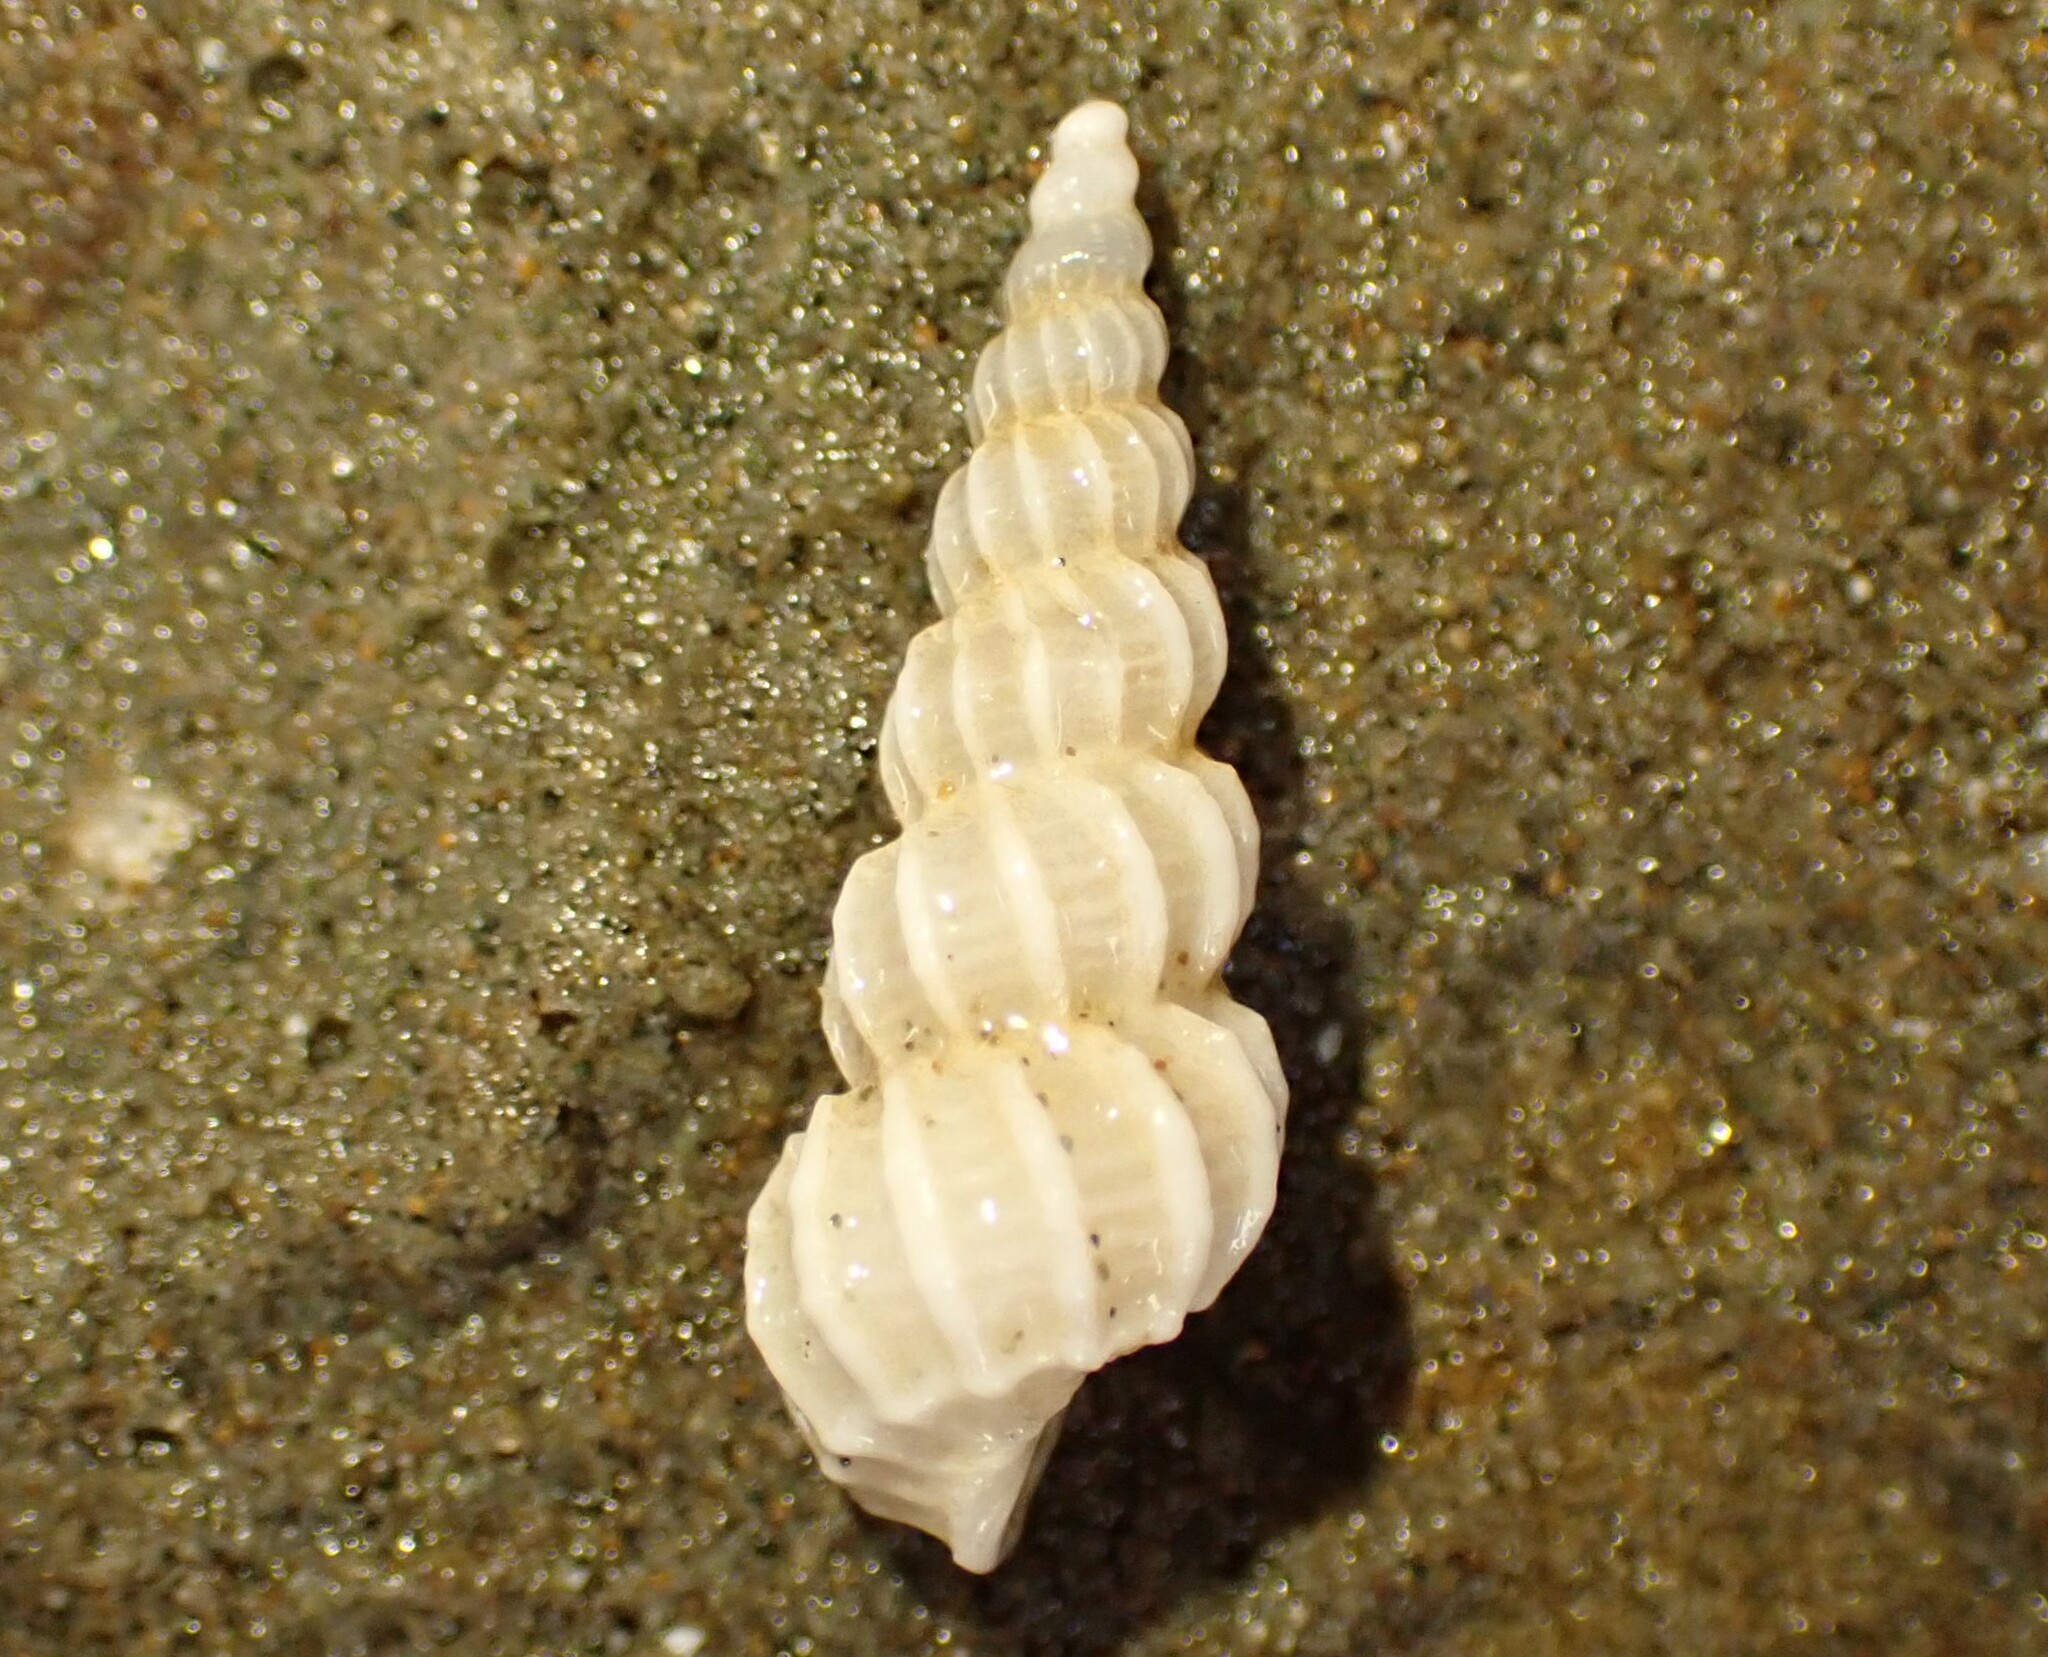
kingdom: Animalia
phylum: Mollusca
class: Gastropoda
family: Epitoniidae
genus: Cirsotrema
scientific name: Cirsotrema zelebori
